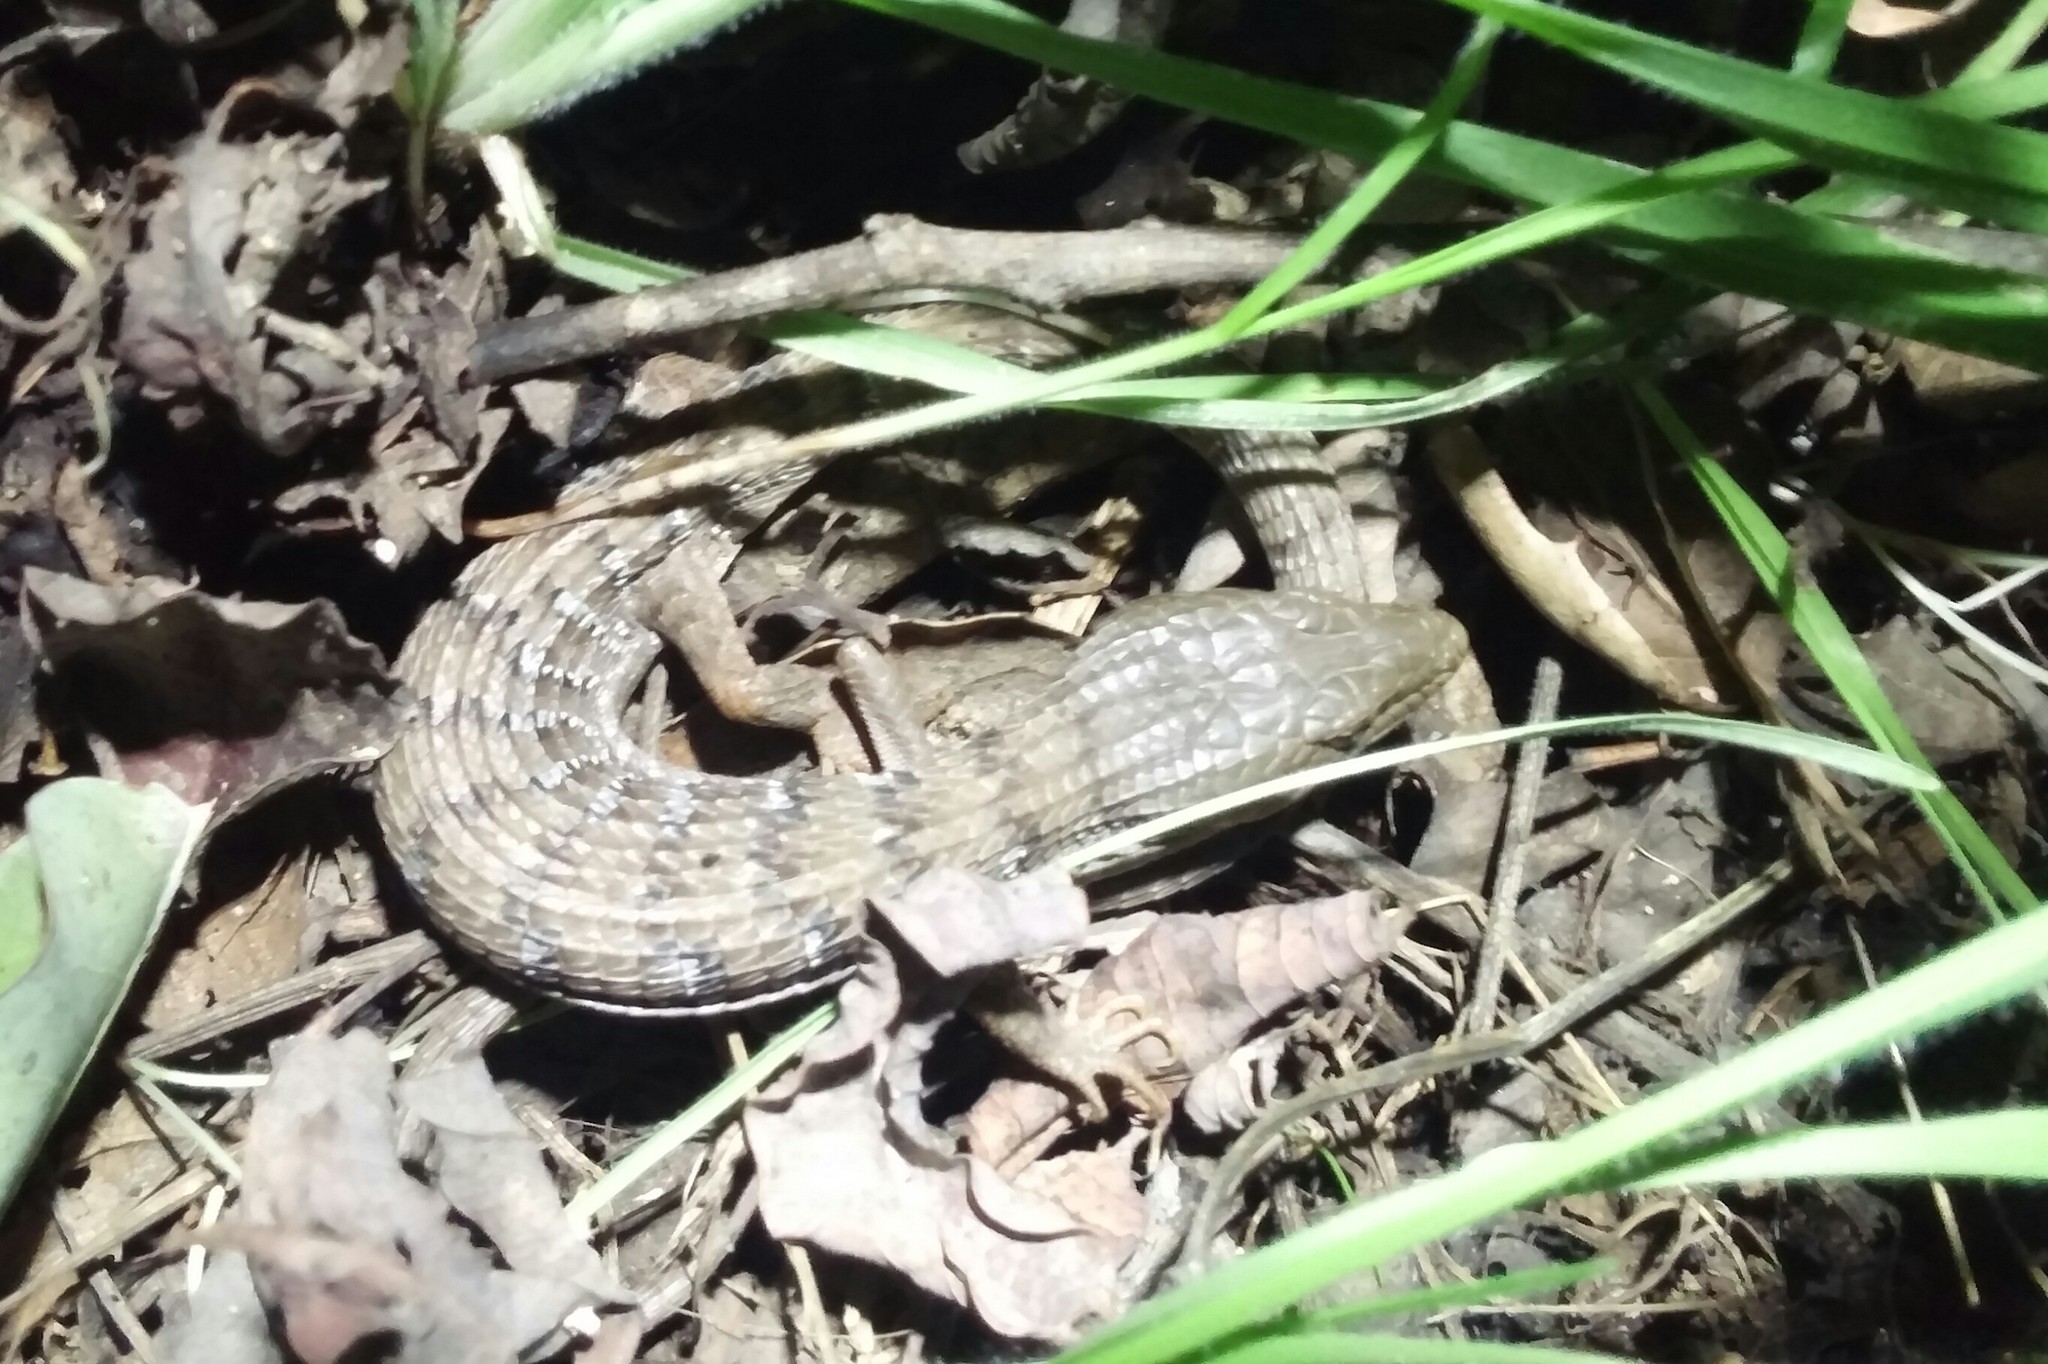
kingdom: Animalia
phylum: Chordata
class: Squamata
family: Anguidae
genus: Elgaria
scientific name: Elgaria multicarinata
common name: Southern alligator lizard
